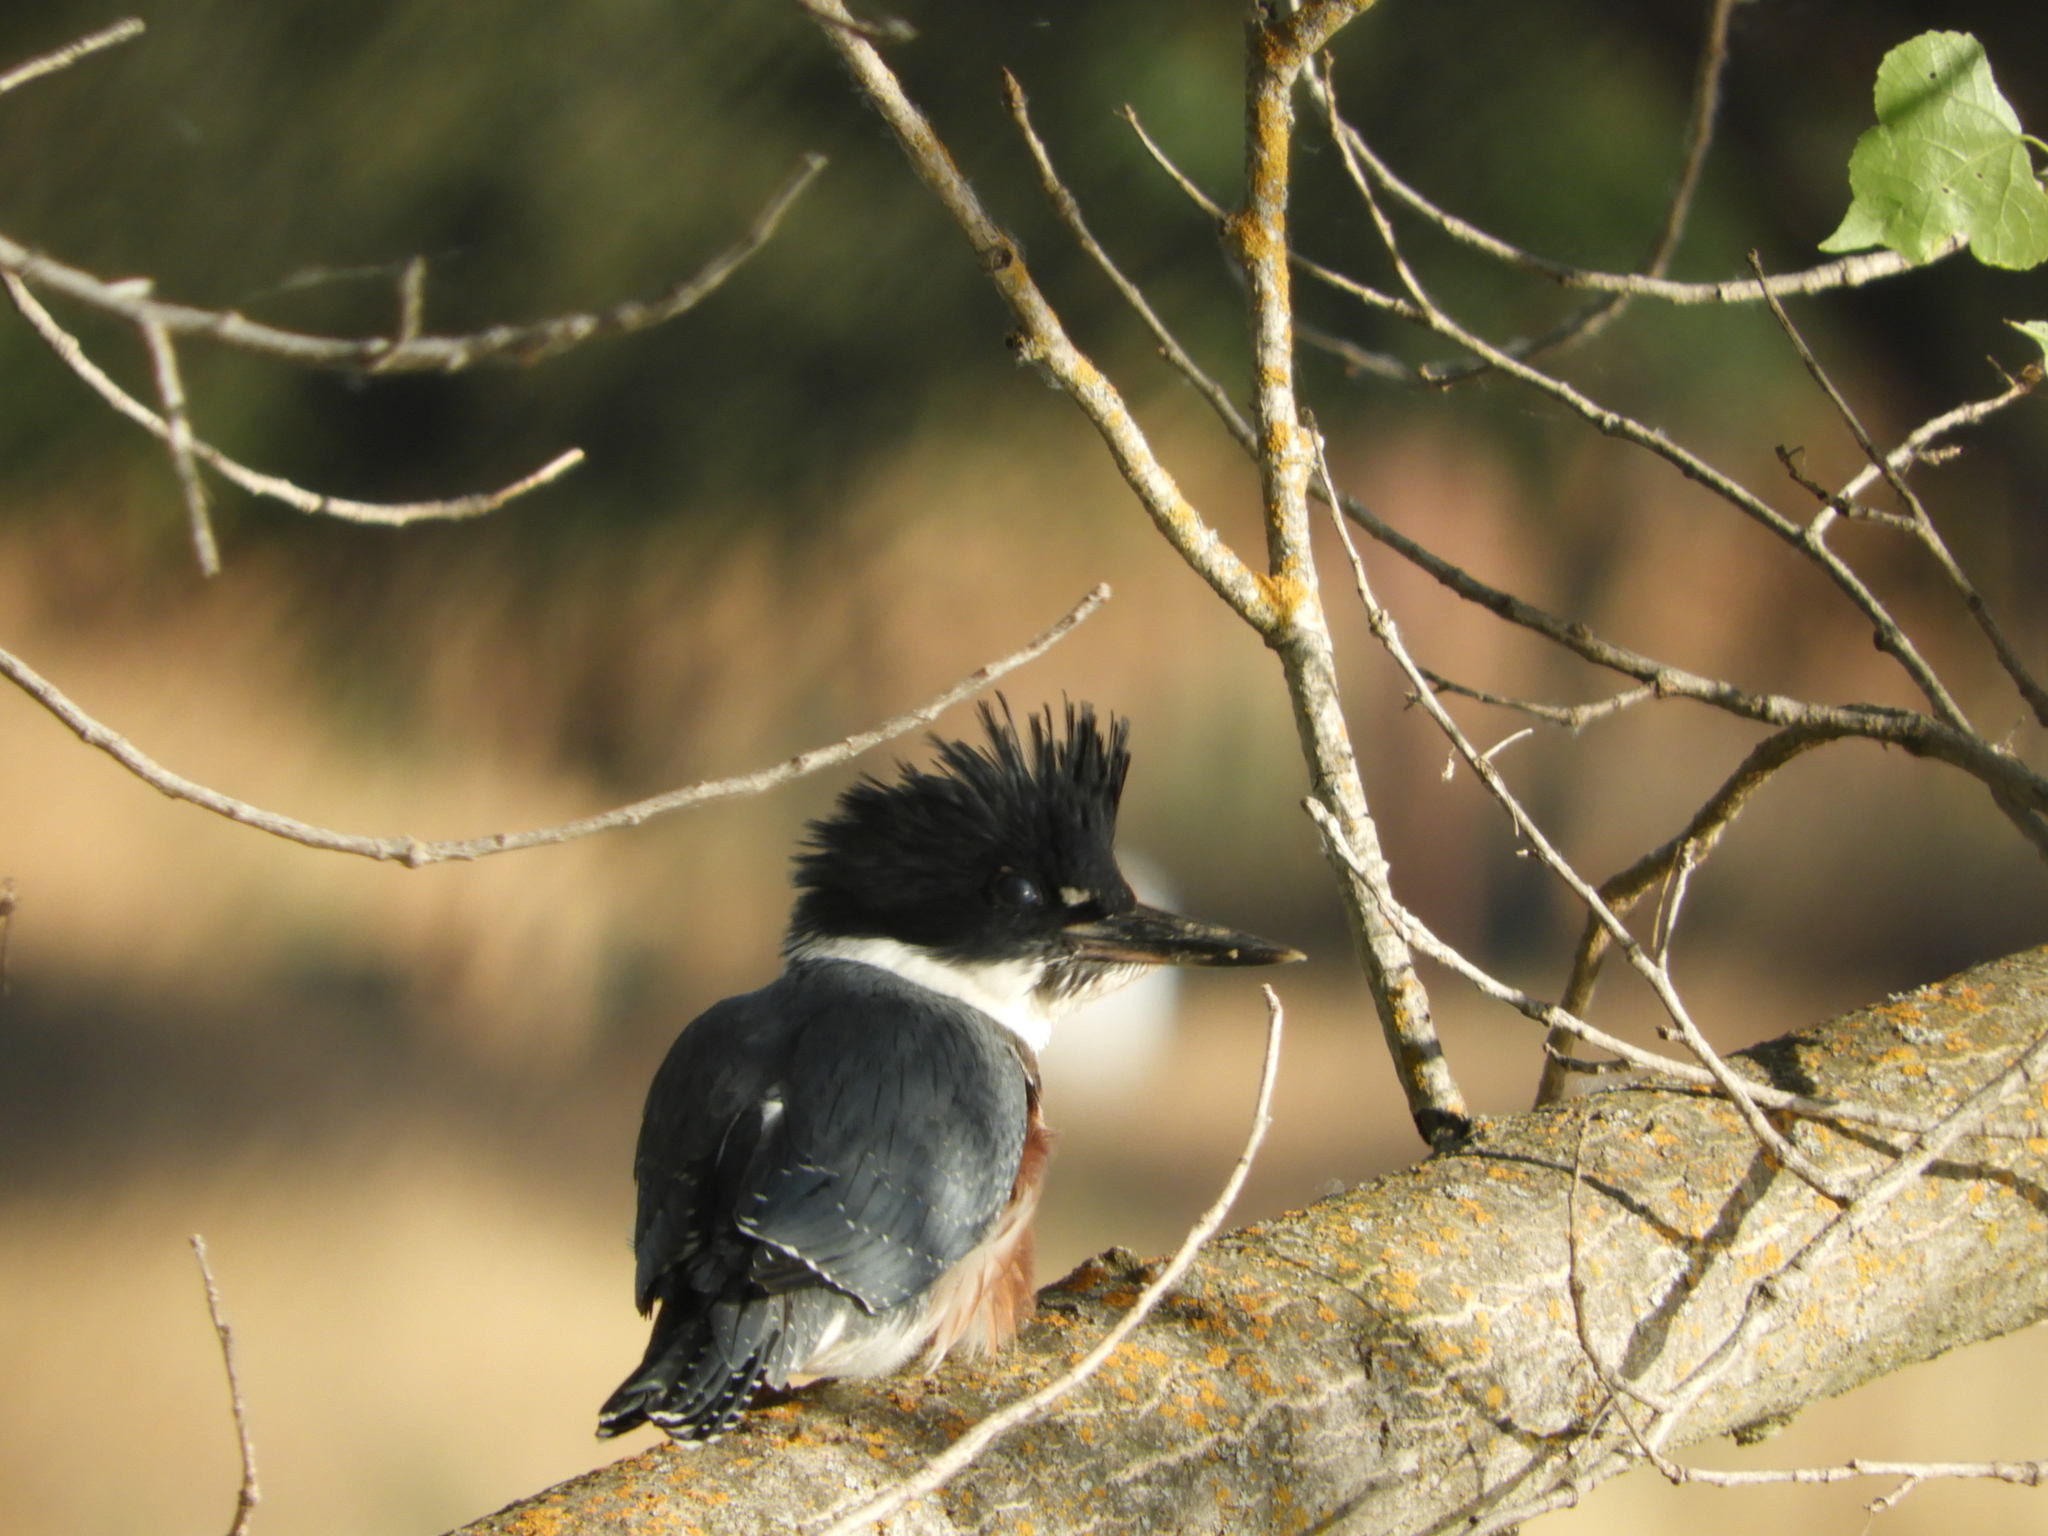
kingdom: Animalia
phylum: Chordata
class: Aves
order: Coraciiformes
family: Alcedinidae
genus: Megaceryle
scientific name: Megaceryle alcyon
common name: Belted kingfisher
